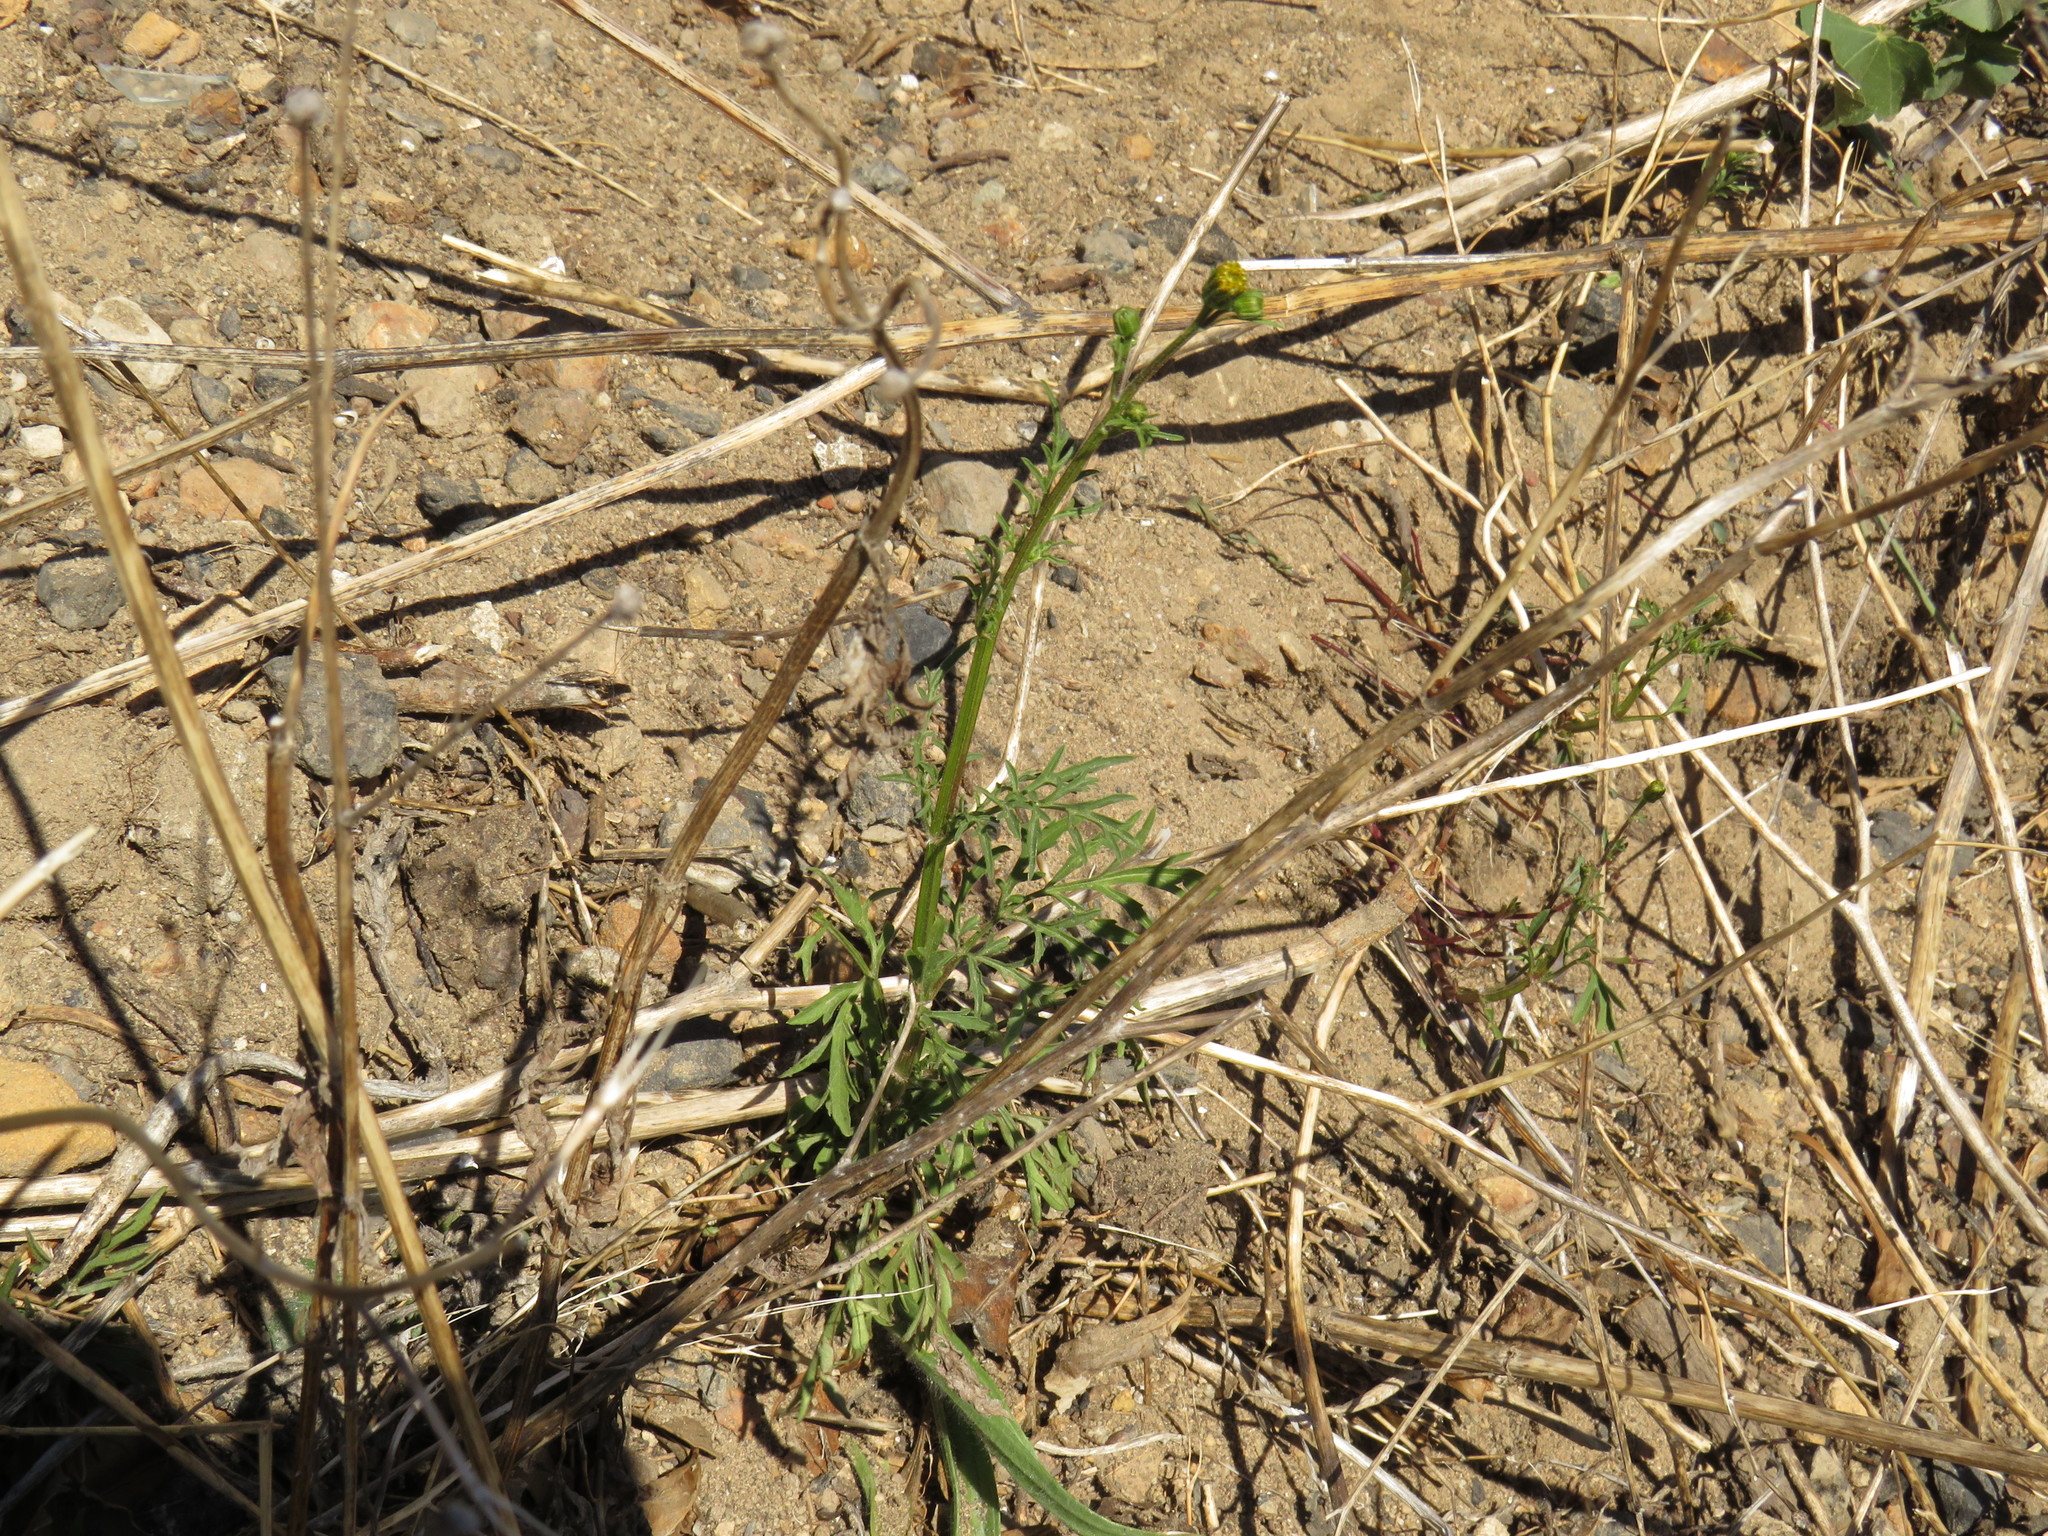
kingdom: Plantae
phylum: Tracheophyta
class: Magnoliopsida
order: Asterales
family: Asteraceae
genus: Bidens
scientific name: Bidens bipinnata
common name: Spanish-needles
